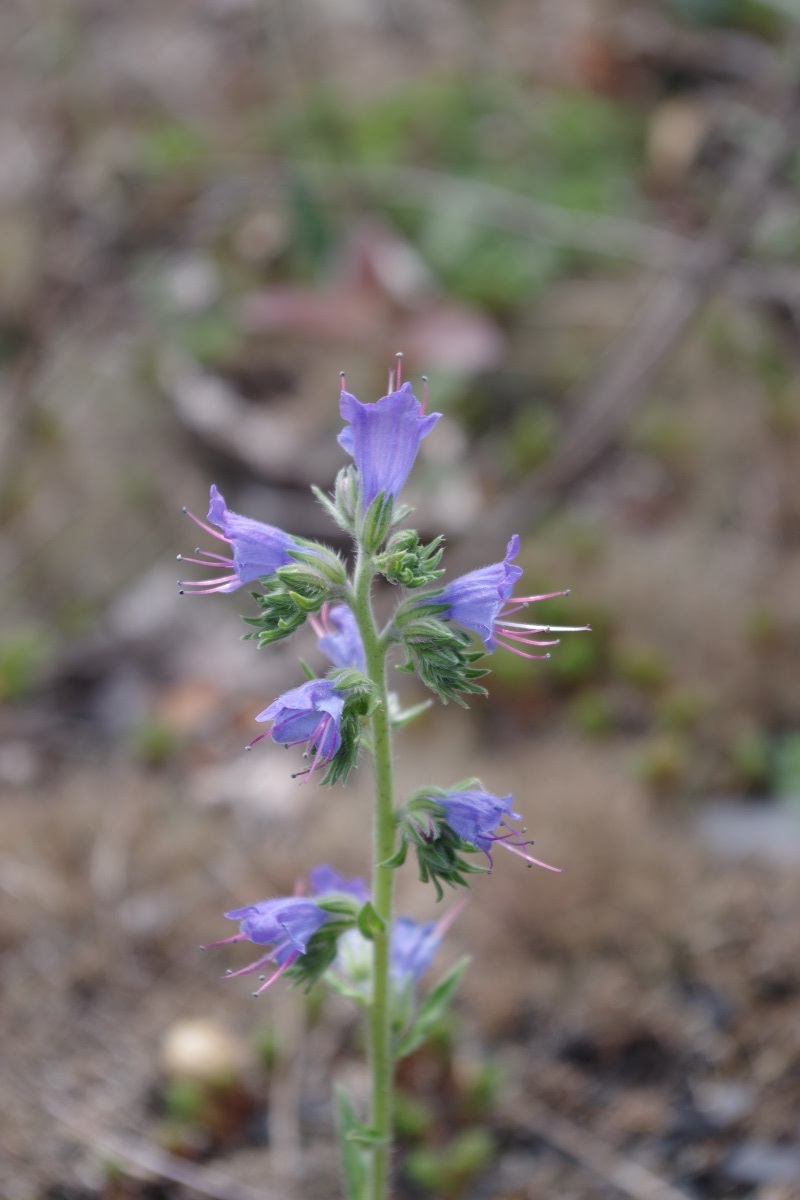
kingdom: Plantae
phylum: Tracheophyta
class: Magnoliopsida
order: Boraginales
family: Boraginaceae
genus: Echium
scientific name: Echium vulgare
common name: Common viper's bugloss
